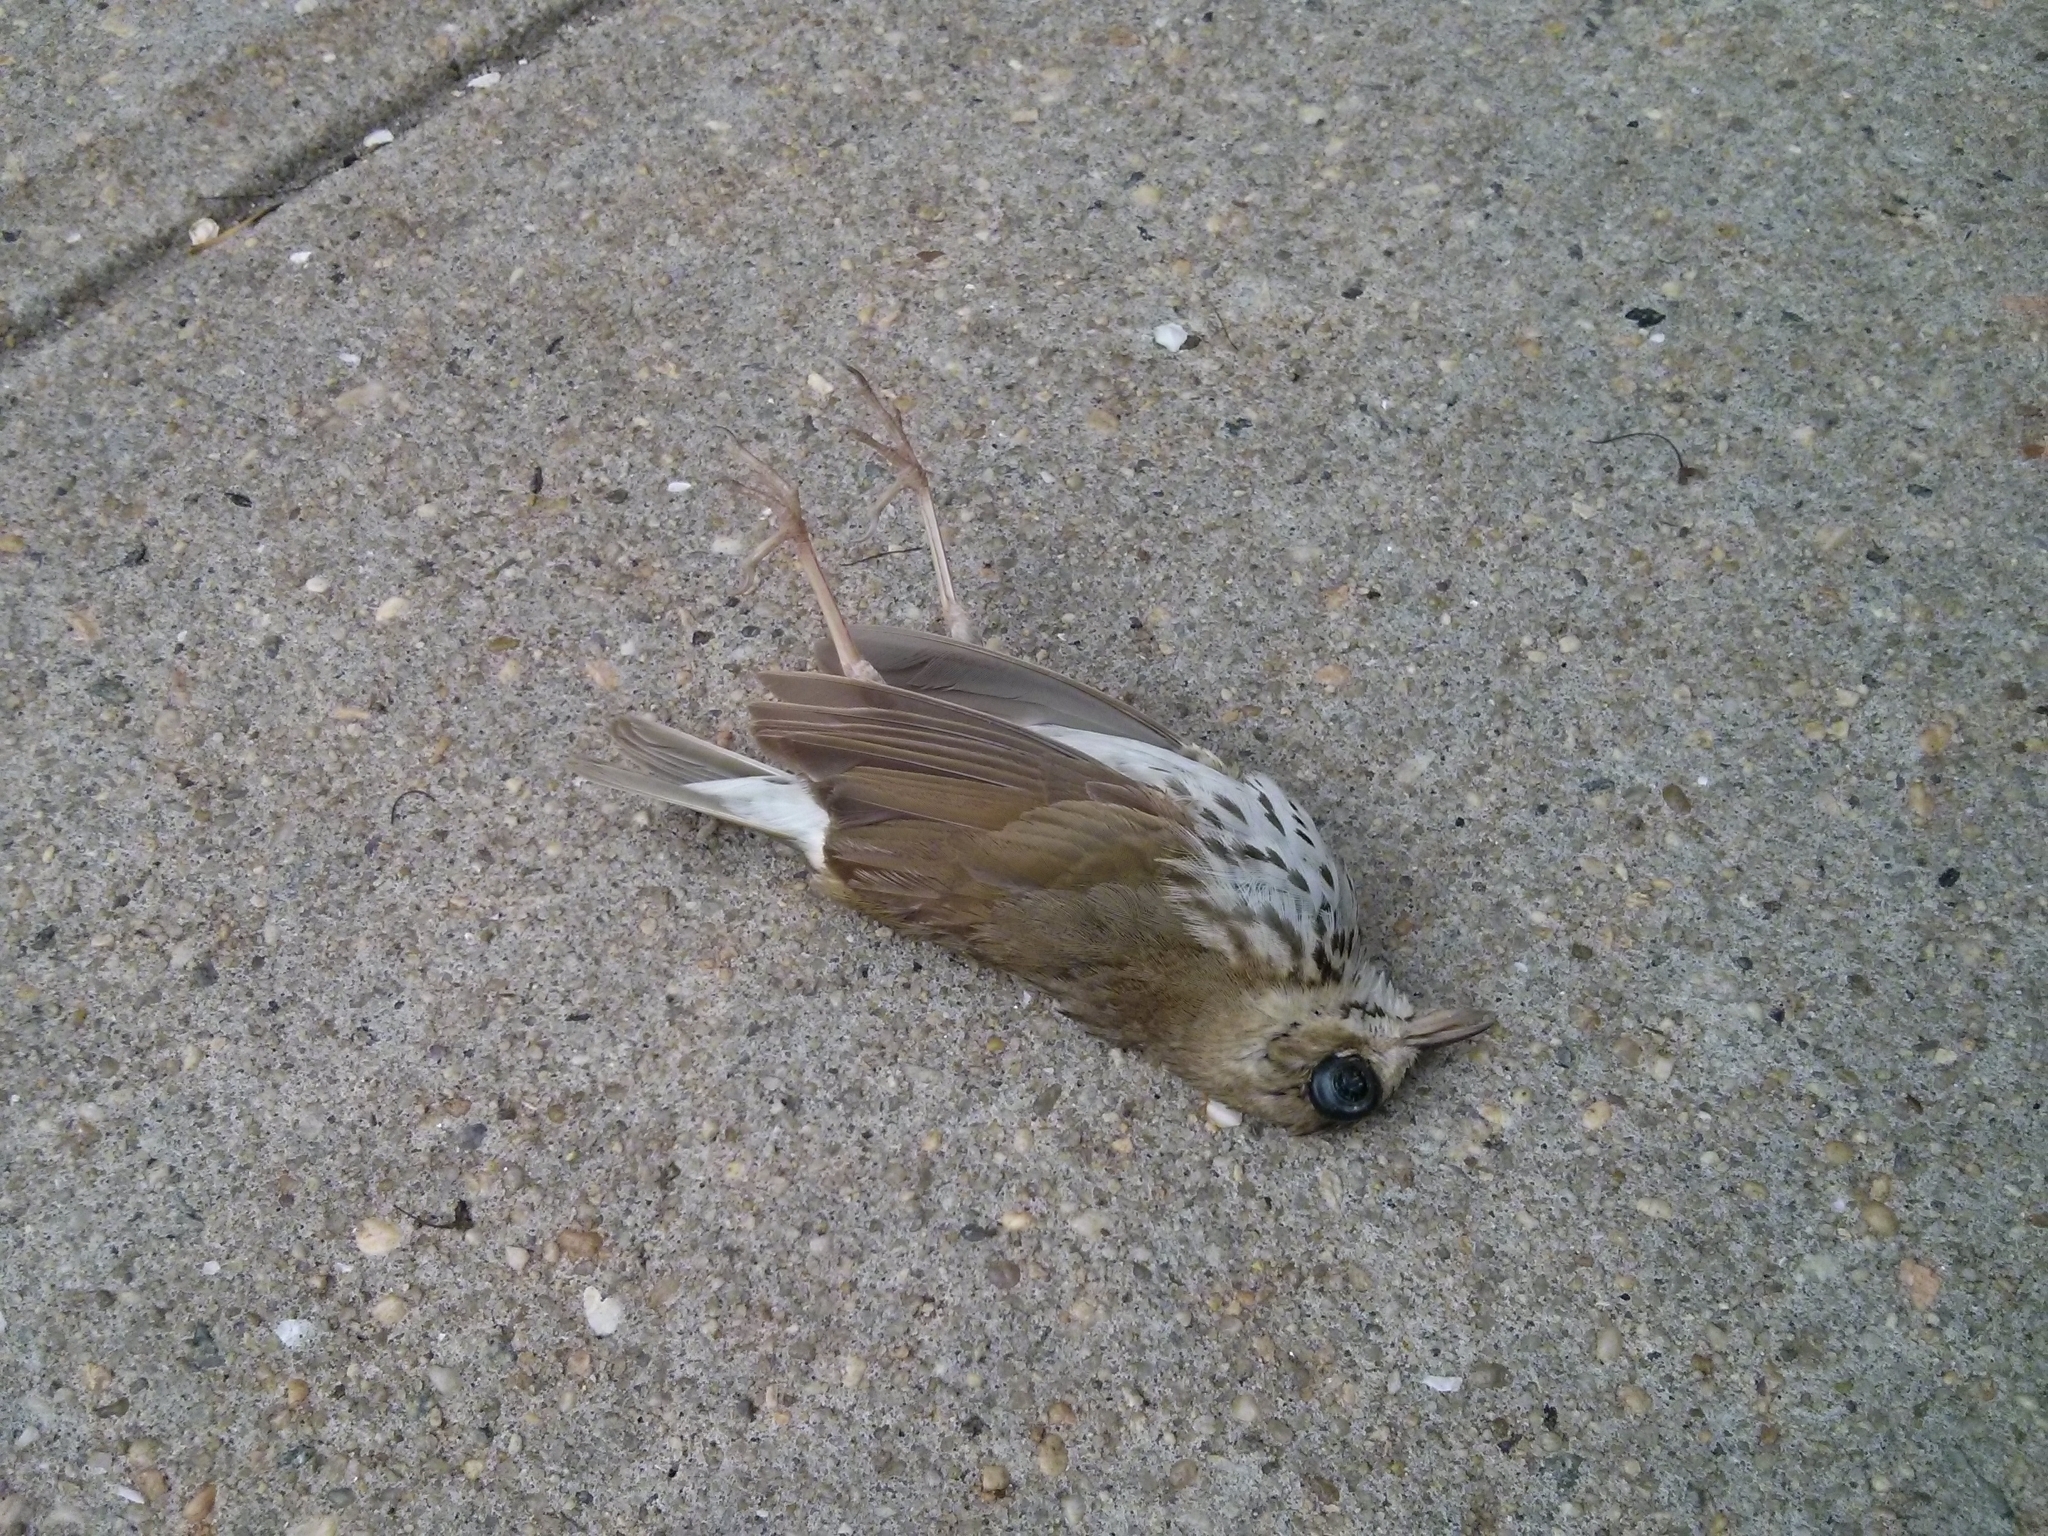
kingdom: Animalia
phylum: Chordata
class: Aves
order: Passeriformes
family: Parulidae
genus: Seiurus
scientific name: Seiurus aurocapilla
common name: Ovenbird
